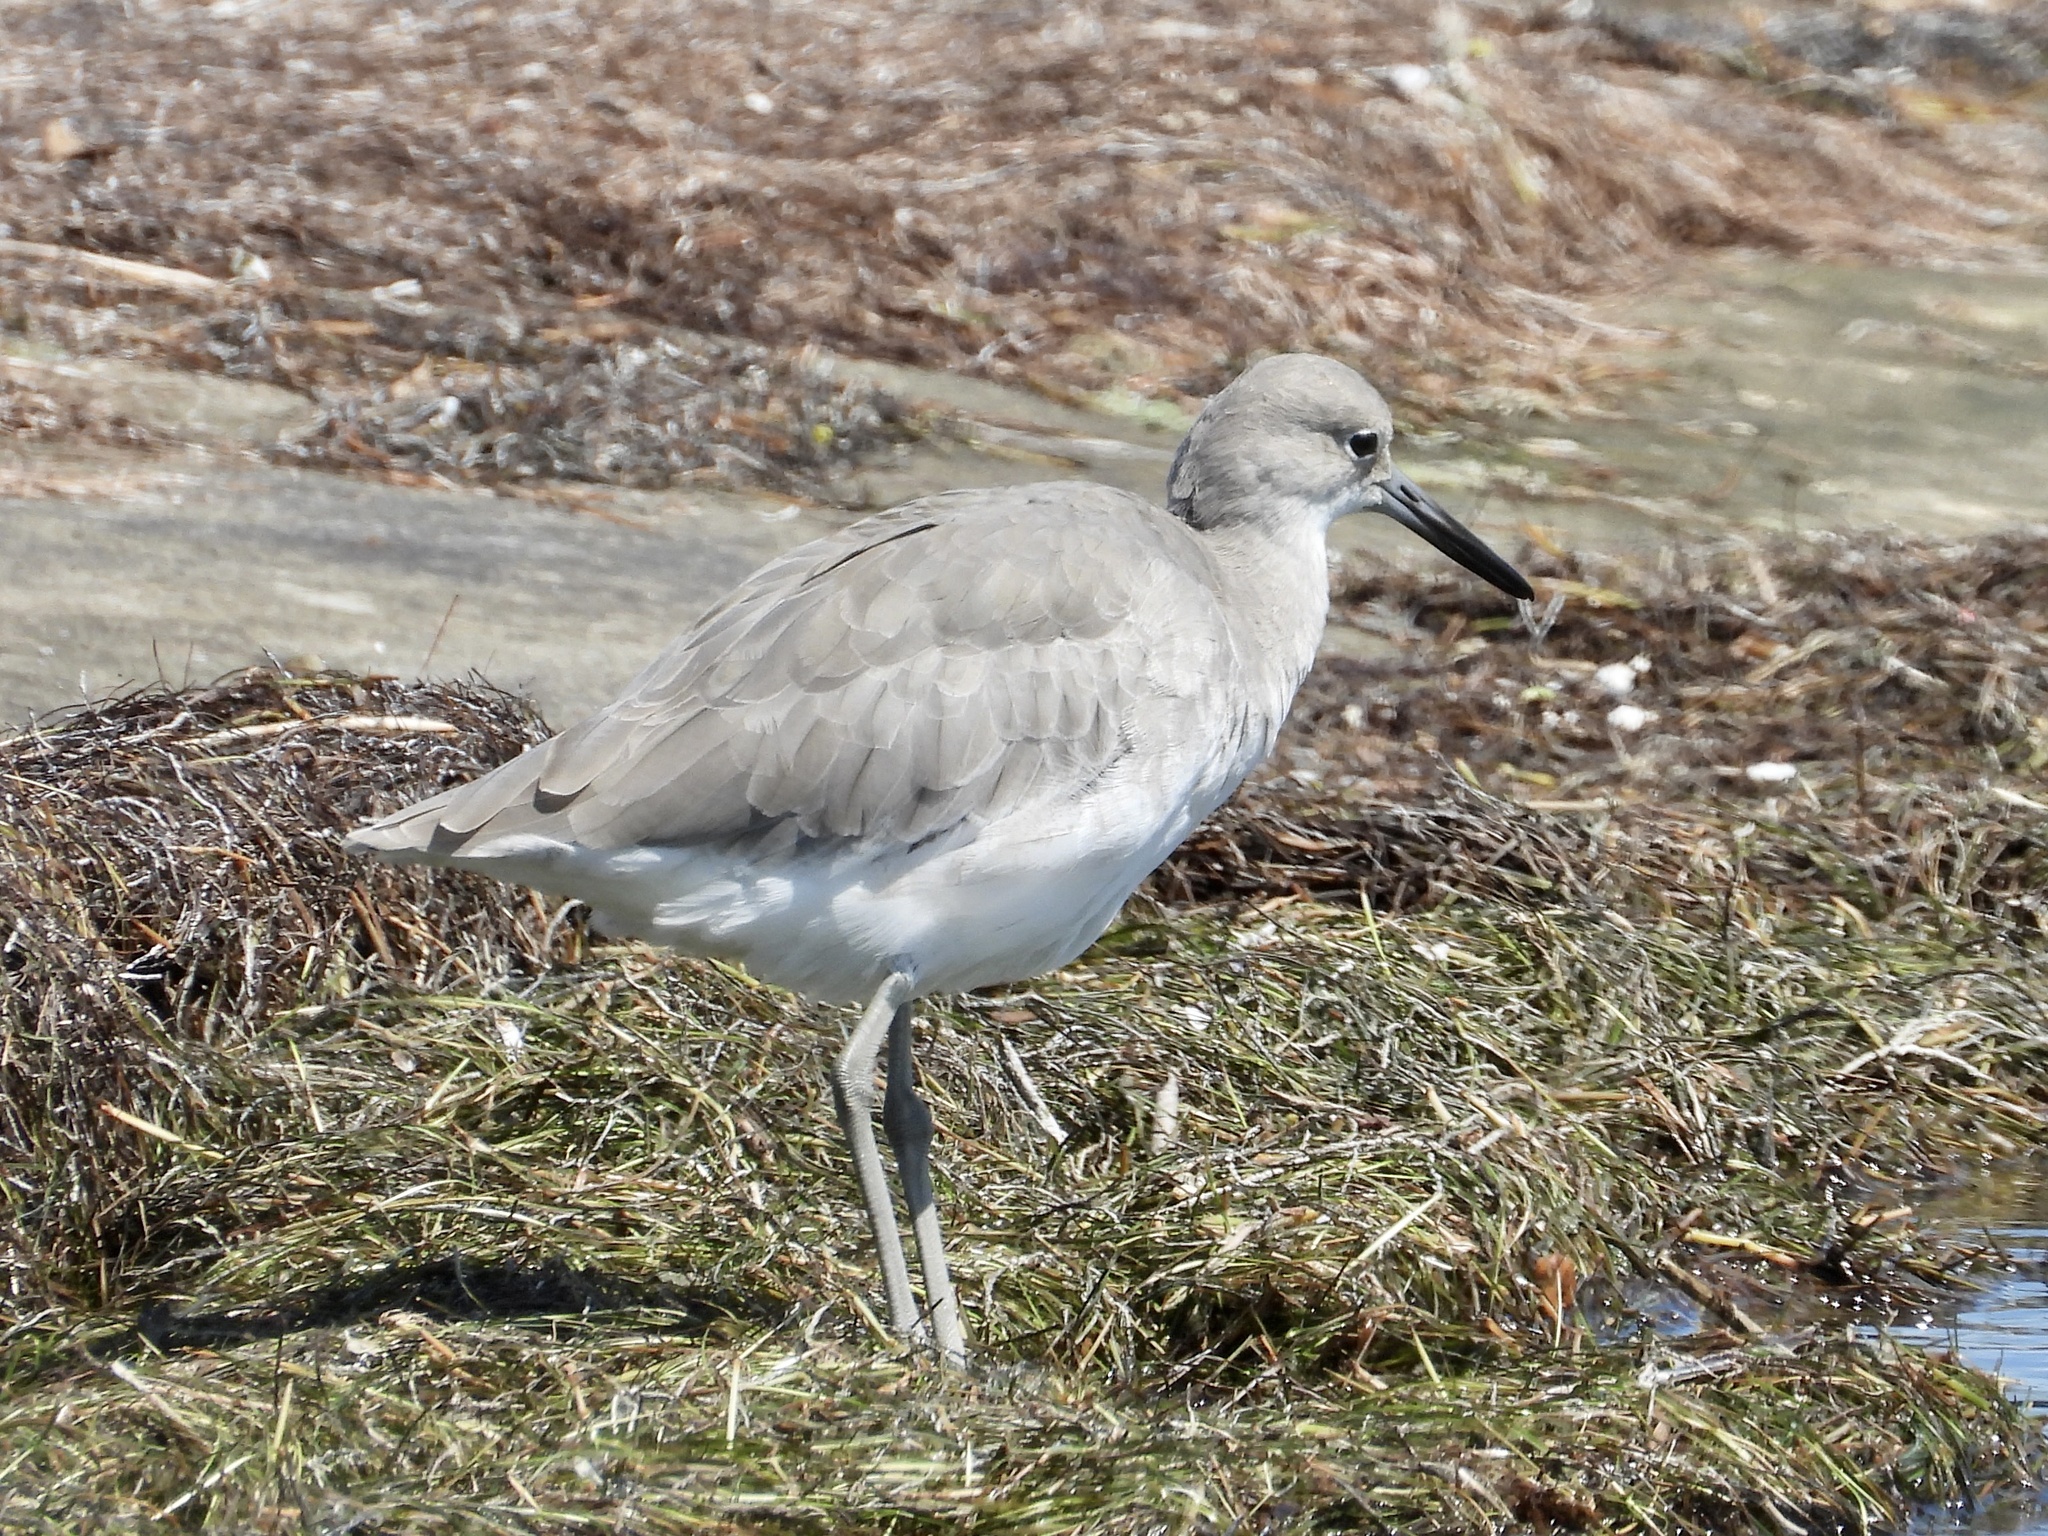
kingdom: Animalia
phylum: Chordata
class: Aves
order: Charadriiformes
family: Scolopacidae
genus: Tringa
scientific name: Tringa semipalmata
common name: Willet
